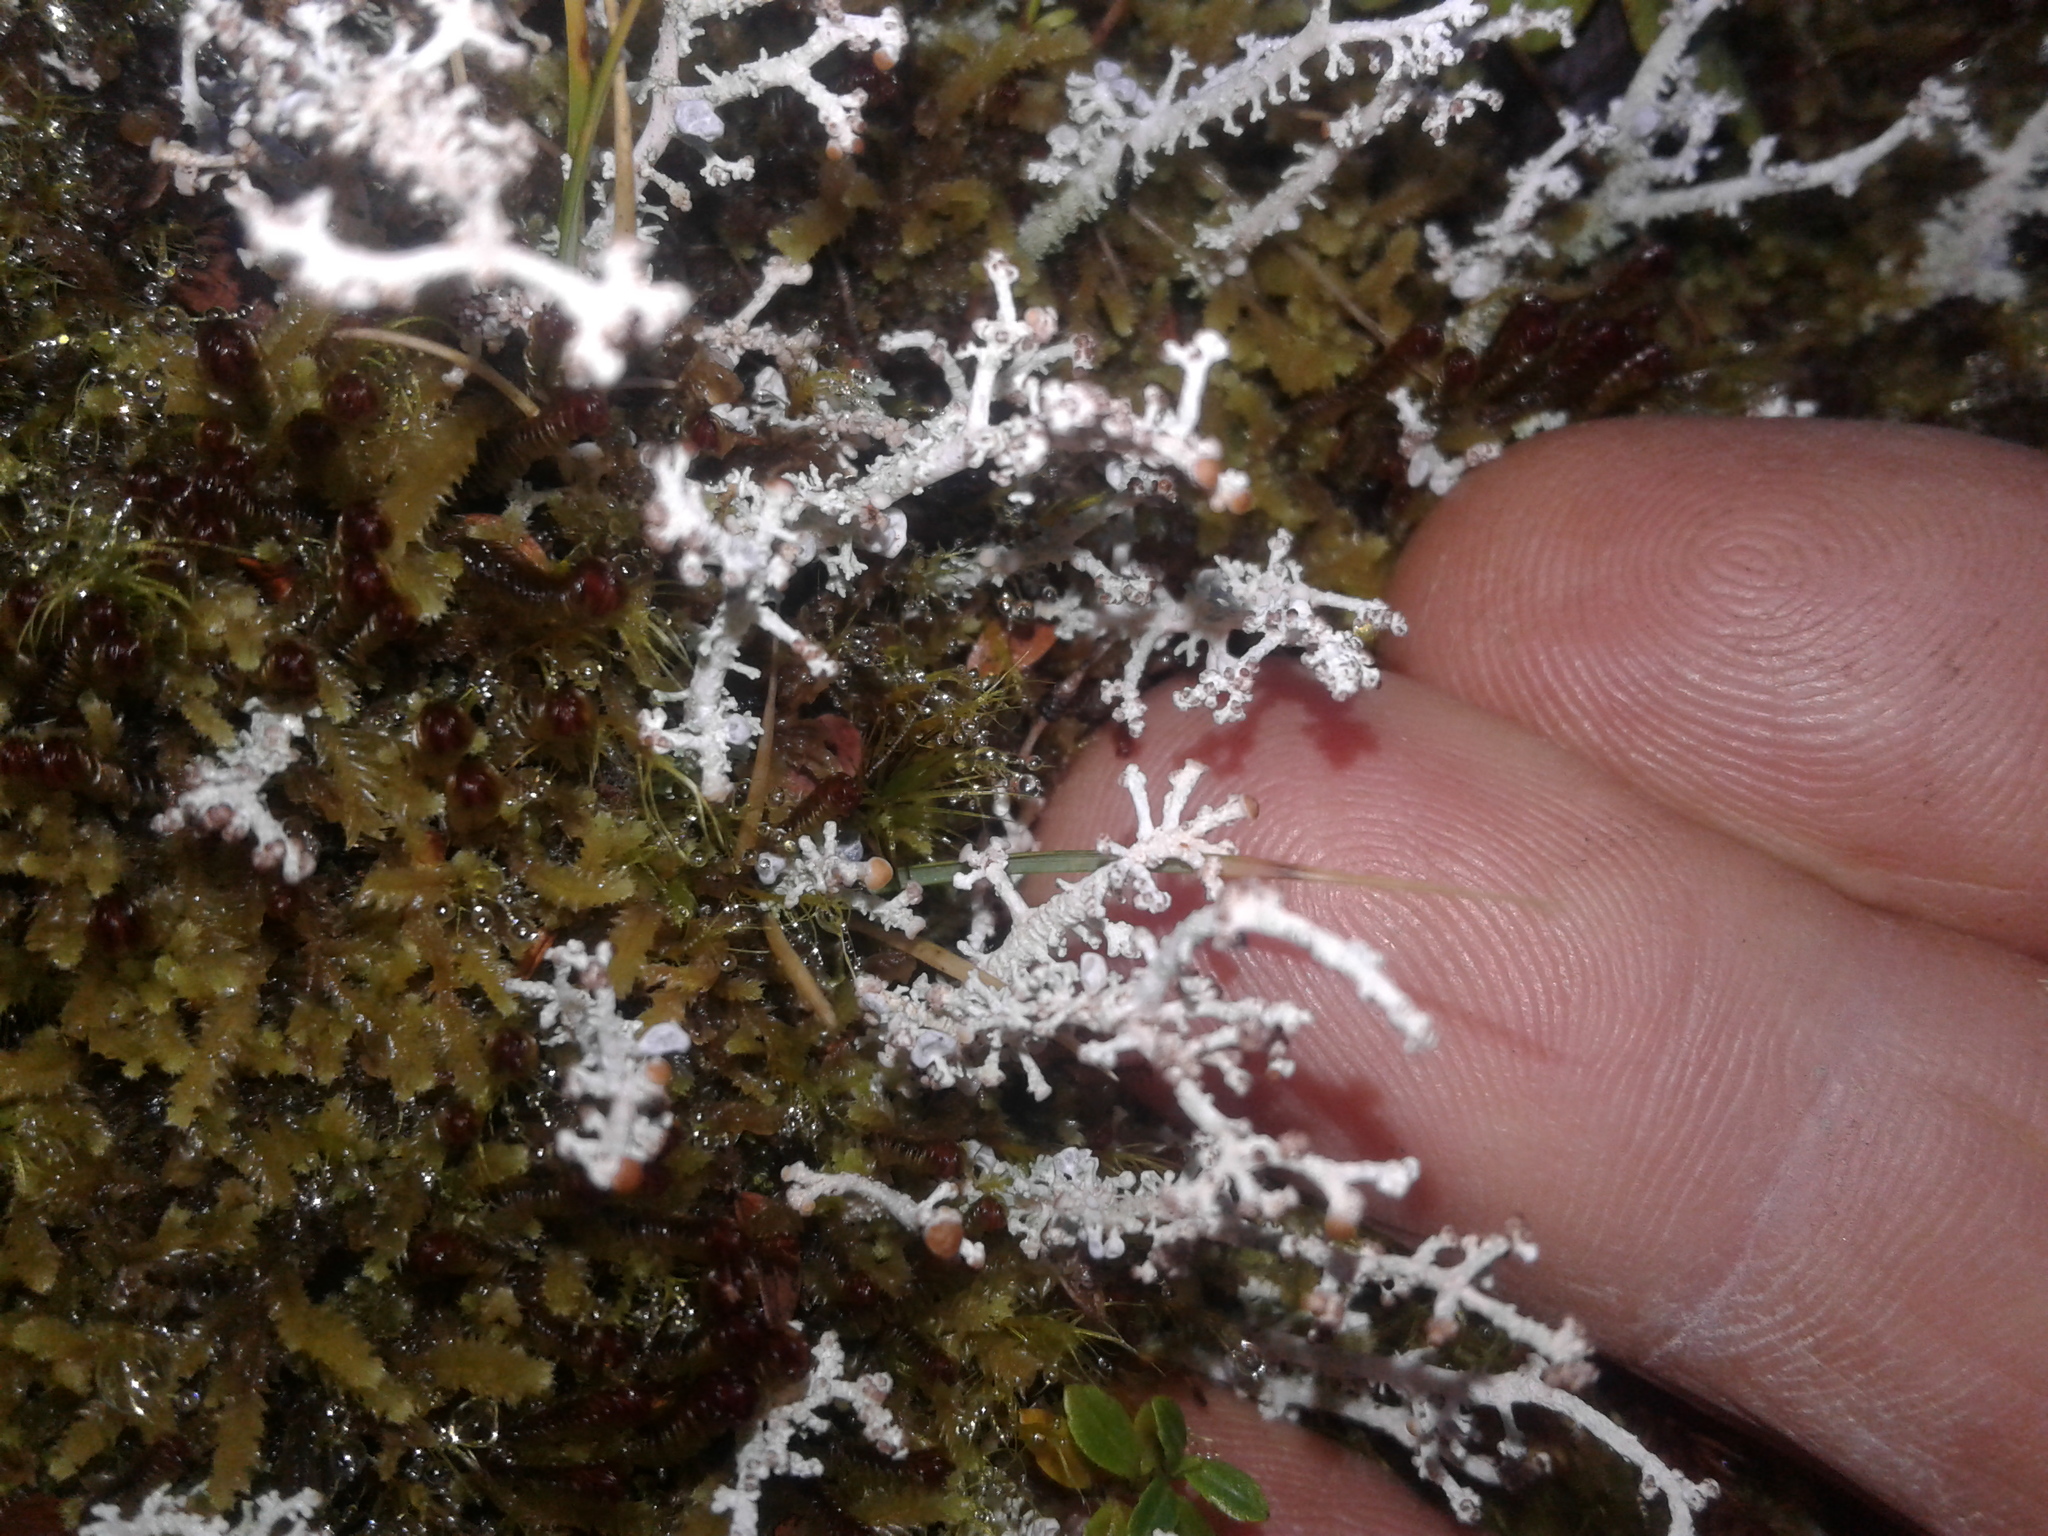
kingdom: Fungi
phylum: Ascomycota
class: Lecanoromycetes
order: Lecanorales
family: Stereocaulaceae
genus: Stereocaulon
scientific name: Stereocaulon ramulosum
